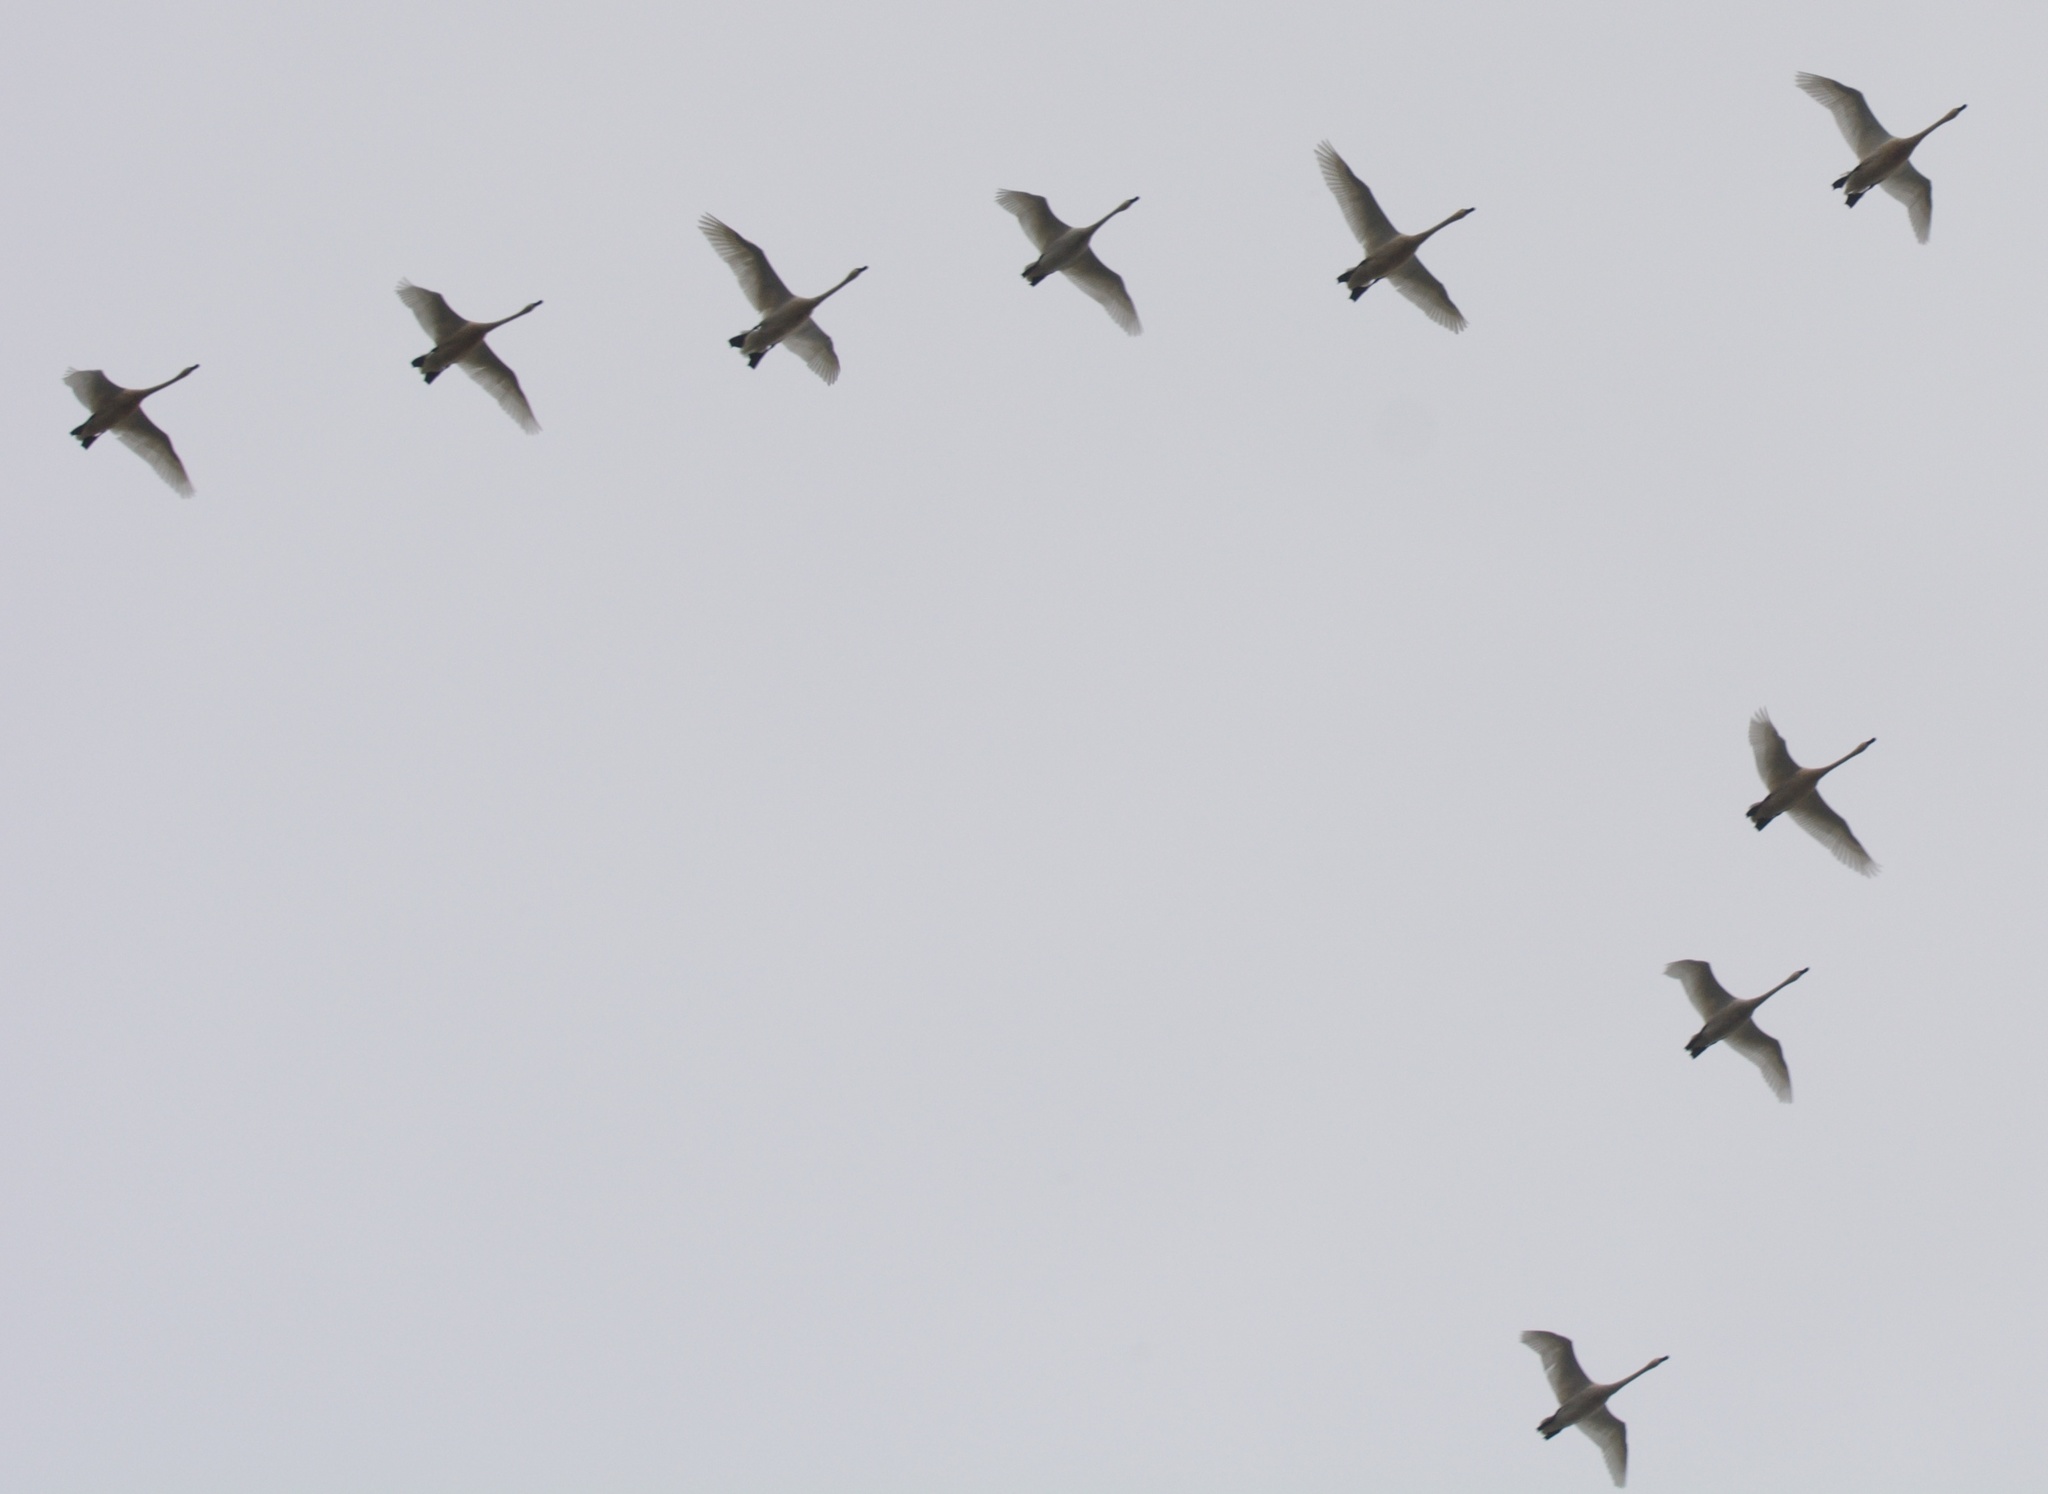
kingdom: Animalia
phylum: Chordata
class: Aves
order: Anseriformes
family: Anatidae
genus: Cygnus
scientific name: Cygnus columbianus
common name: Tundra swan
